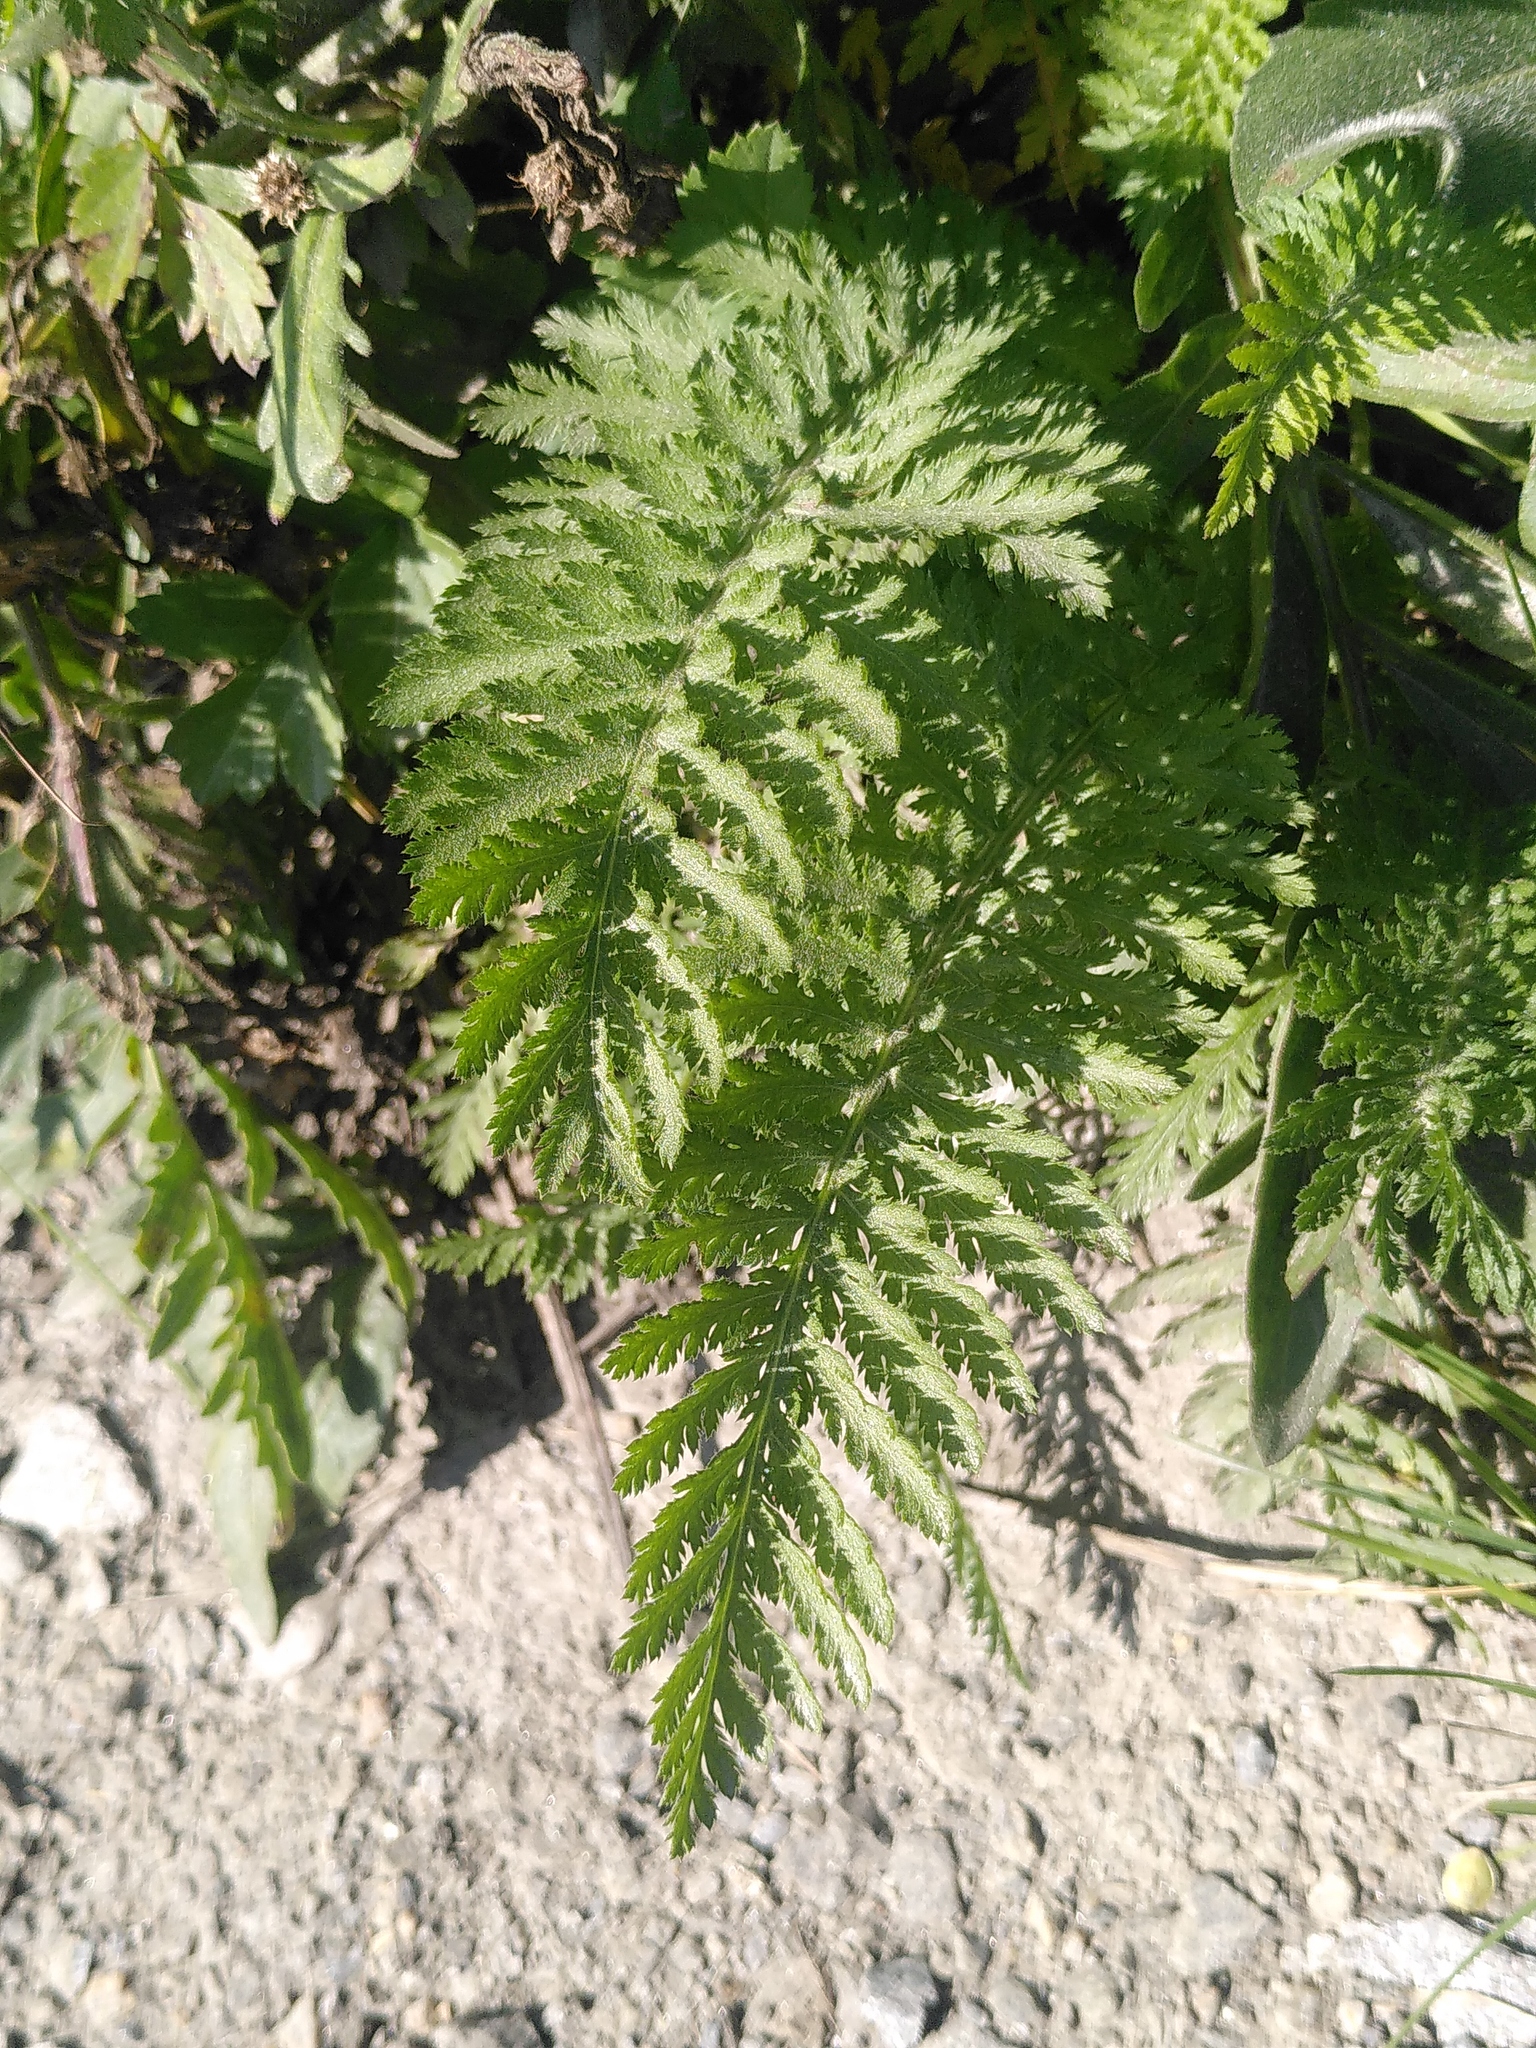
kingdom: Plantae
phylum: Tracheophyta
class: Magnoliopsida
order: Asterales
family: Asteraceae
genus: Achillea
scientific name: Achillea distans
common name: Tall yarrow
